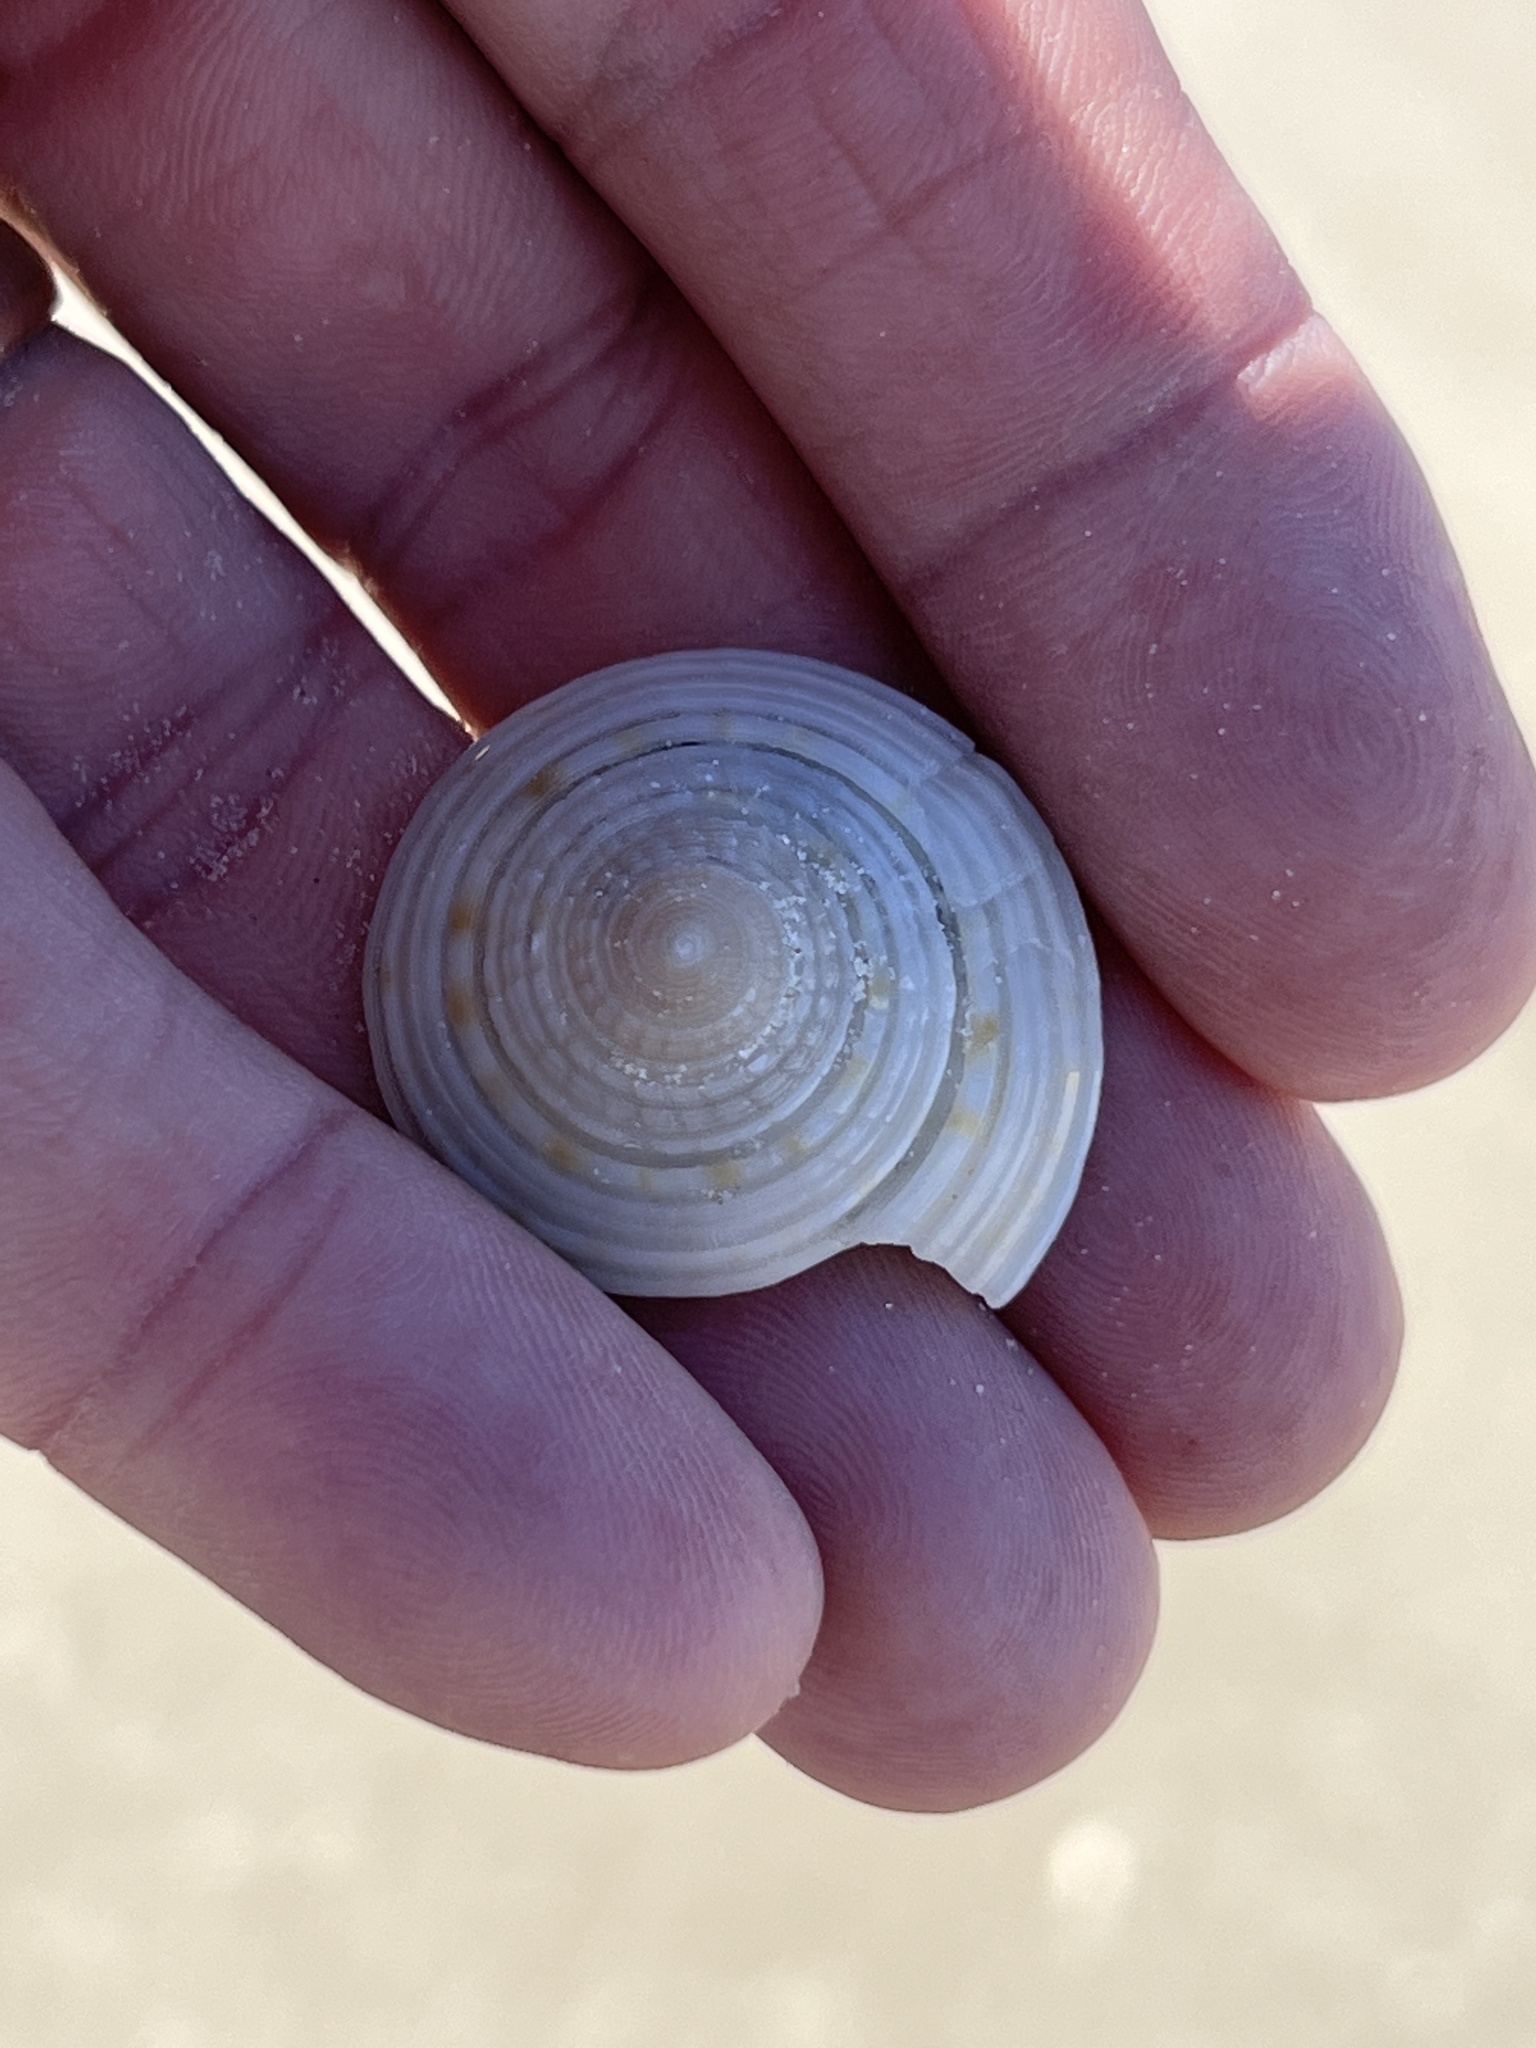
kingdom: Animalia
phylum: Mollusca
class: Gastropoda
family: Architectonicidae
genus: Architectonica
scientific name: Architectonica nobilis
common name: Common sundial
